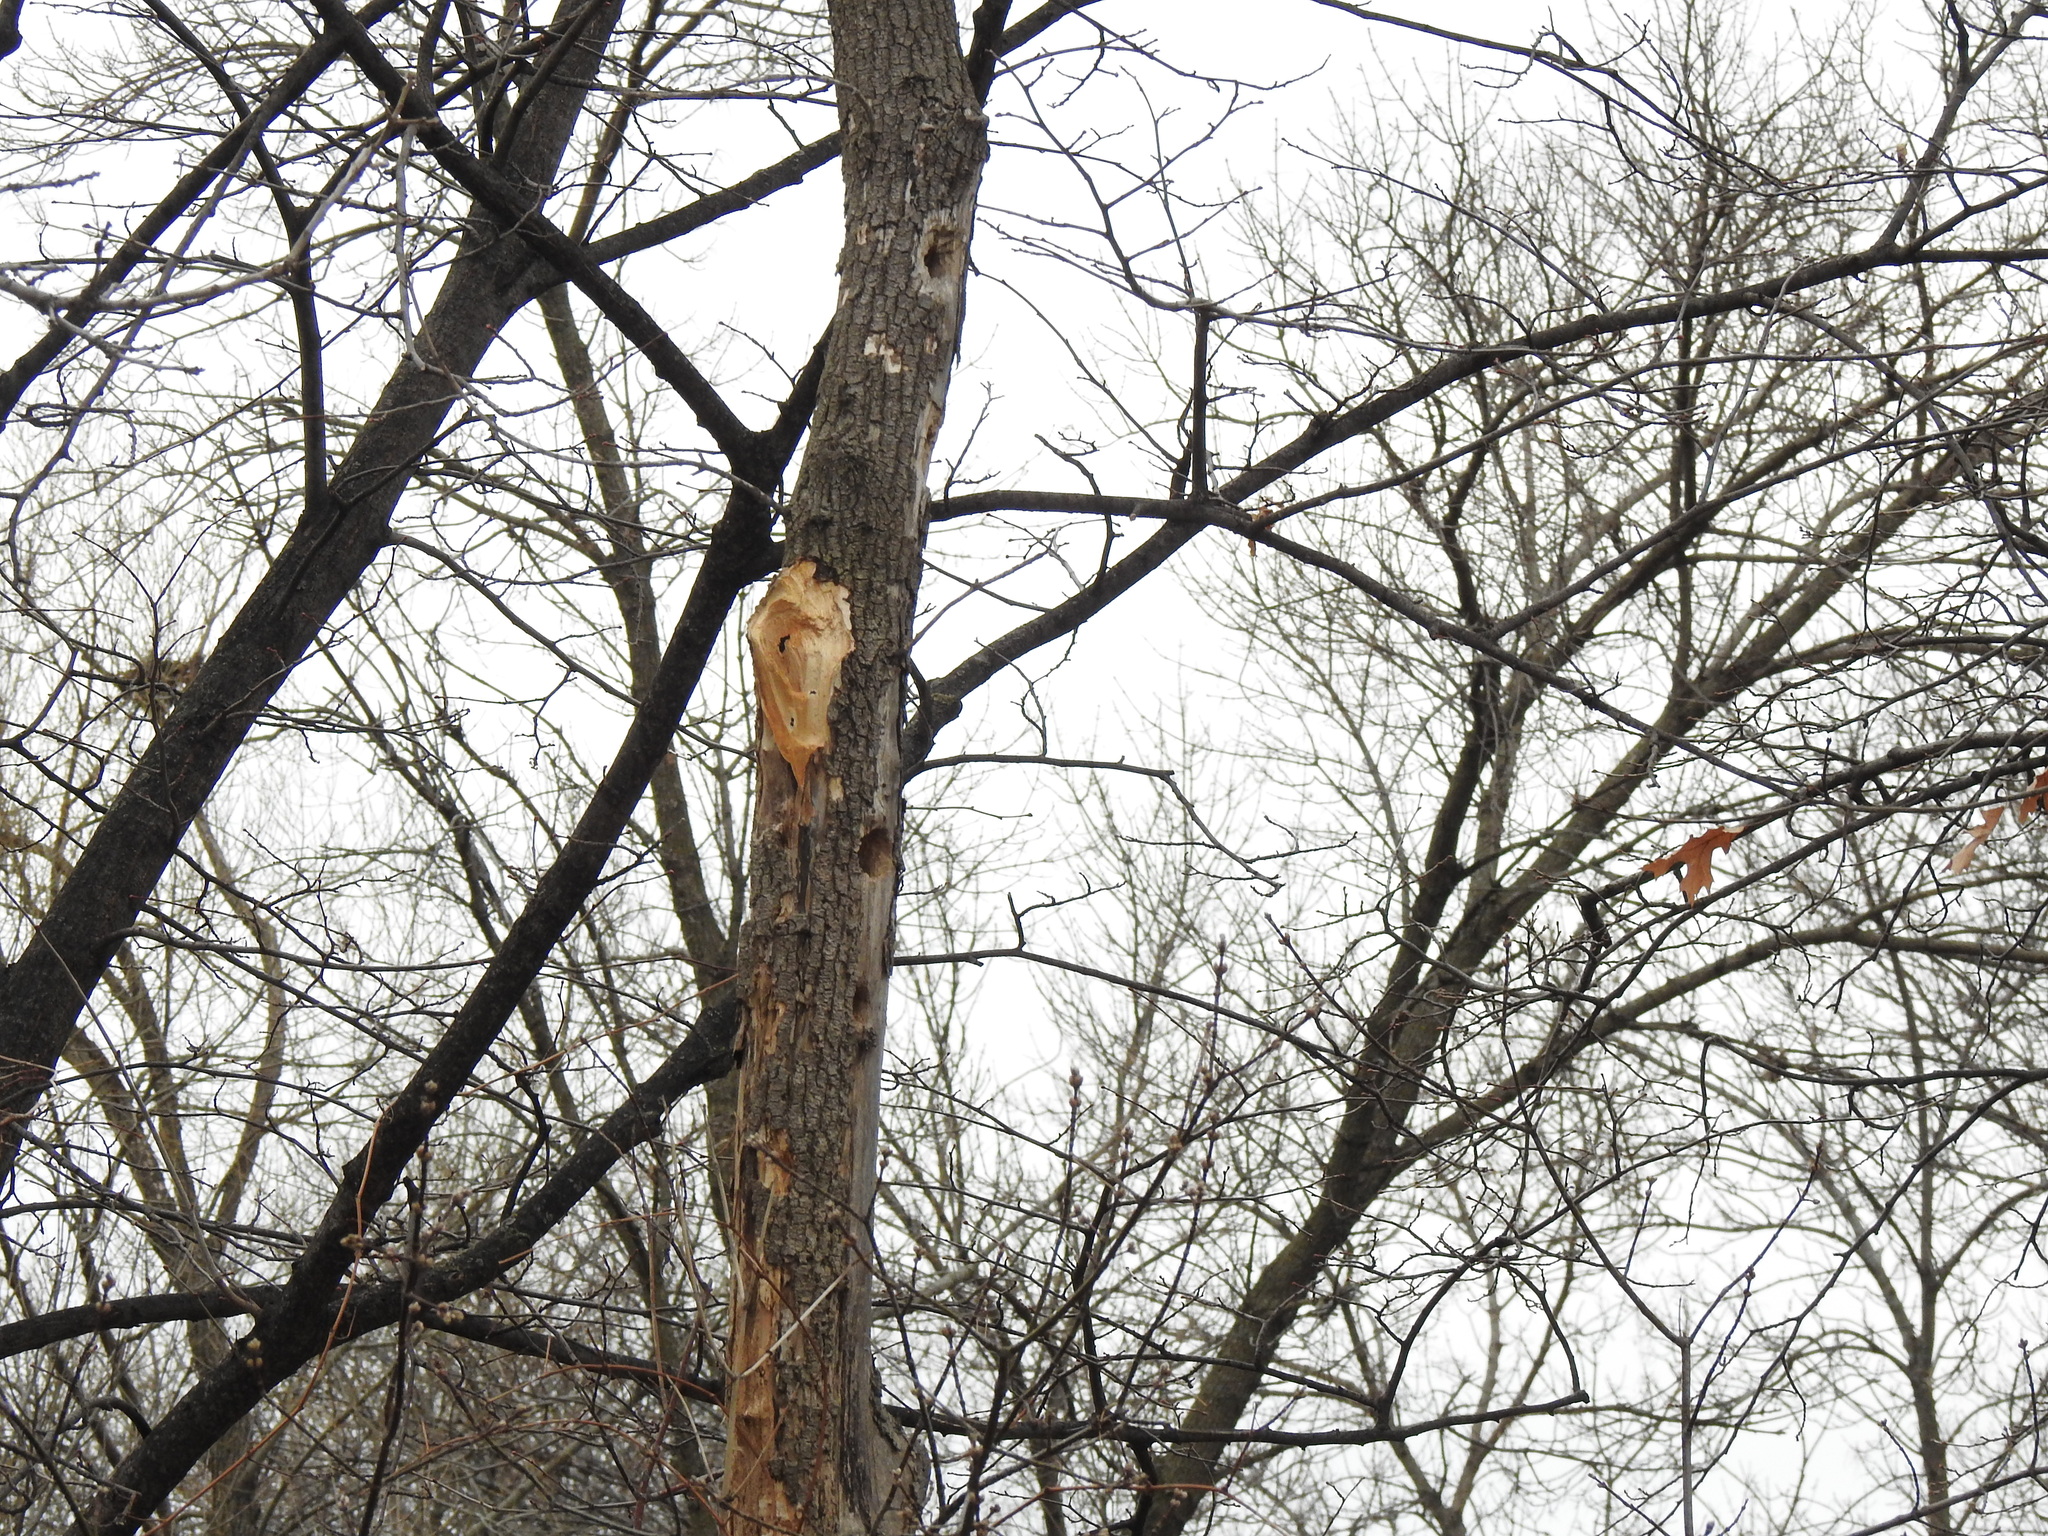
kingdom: Animalia
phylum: Chordata
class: Aves
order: Piciformes
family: Picidae
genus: Dryocopus
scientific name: Dryocopus pileatus
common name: Pileated woodpecker
